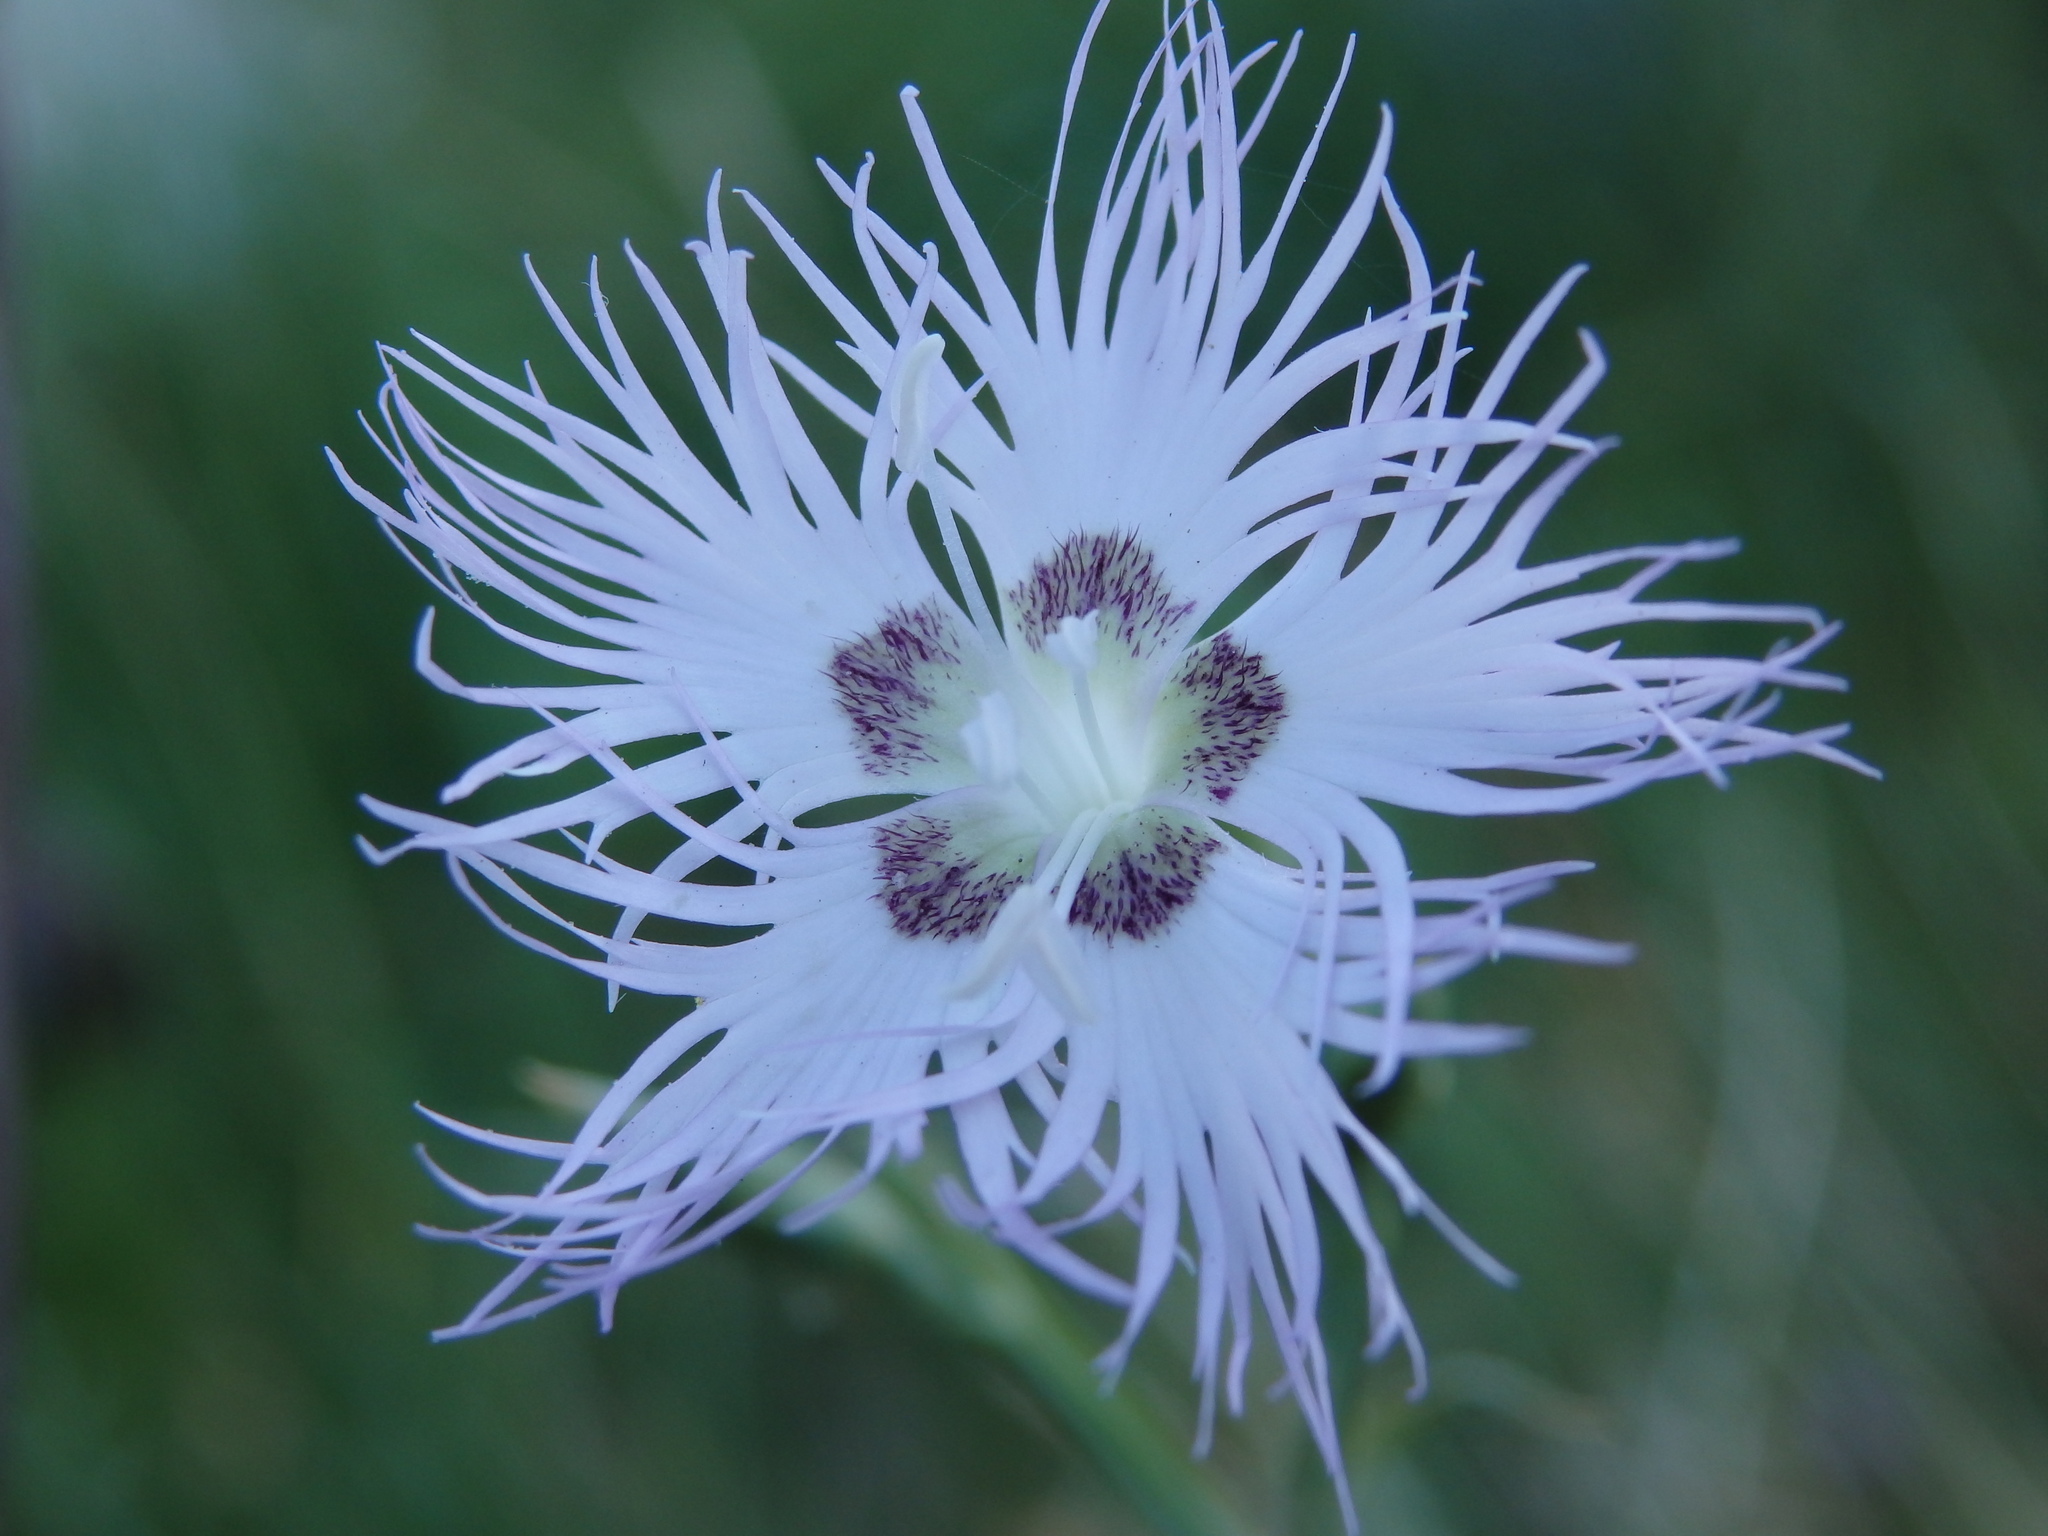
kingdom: Plantae
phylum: Tracheophyta
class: Magnoliopsida
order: Caryophyllales
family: Caryophyllaceae
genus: Dianthus
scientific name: Dianthus hyssopifolius
